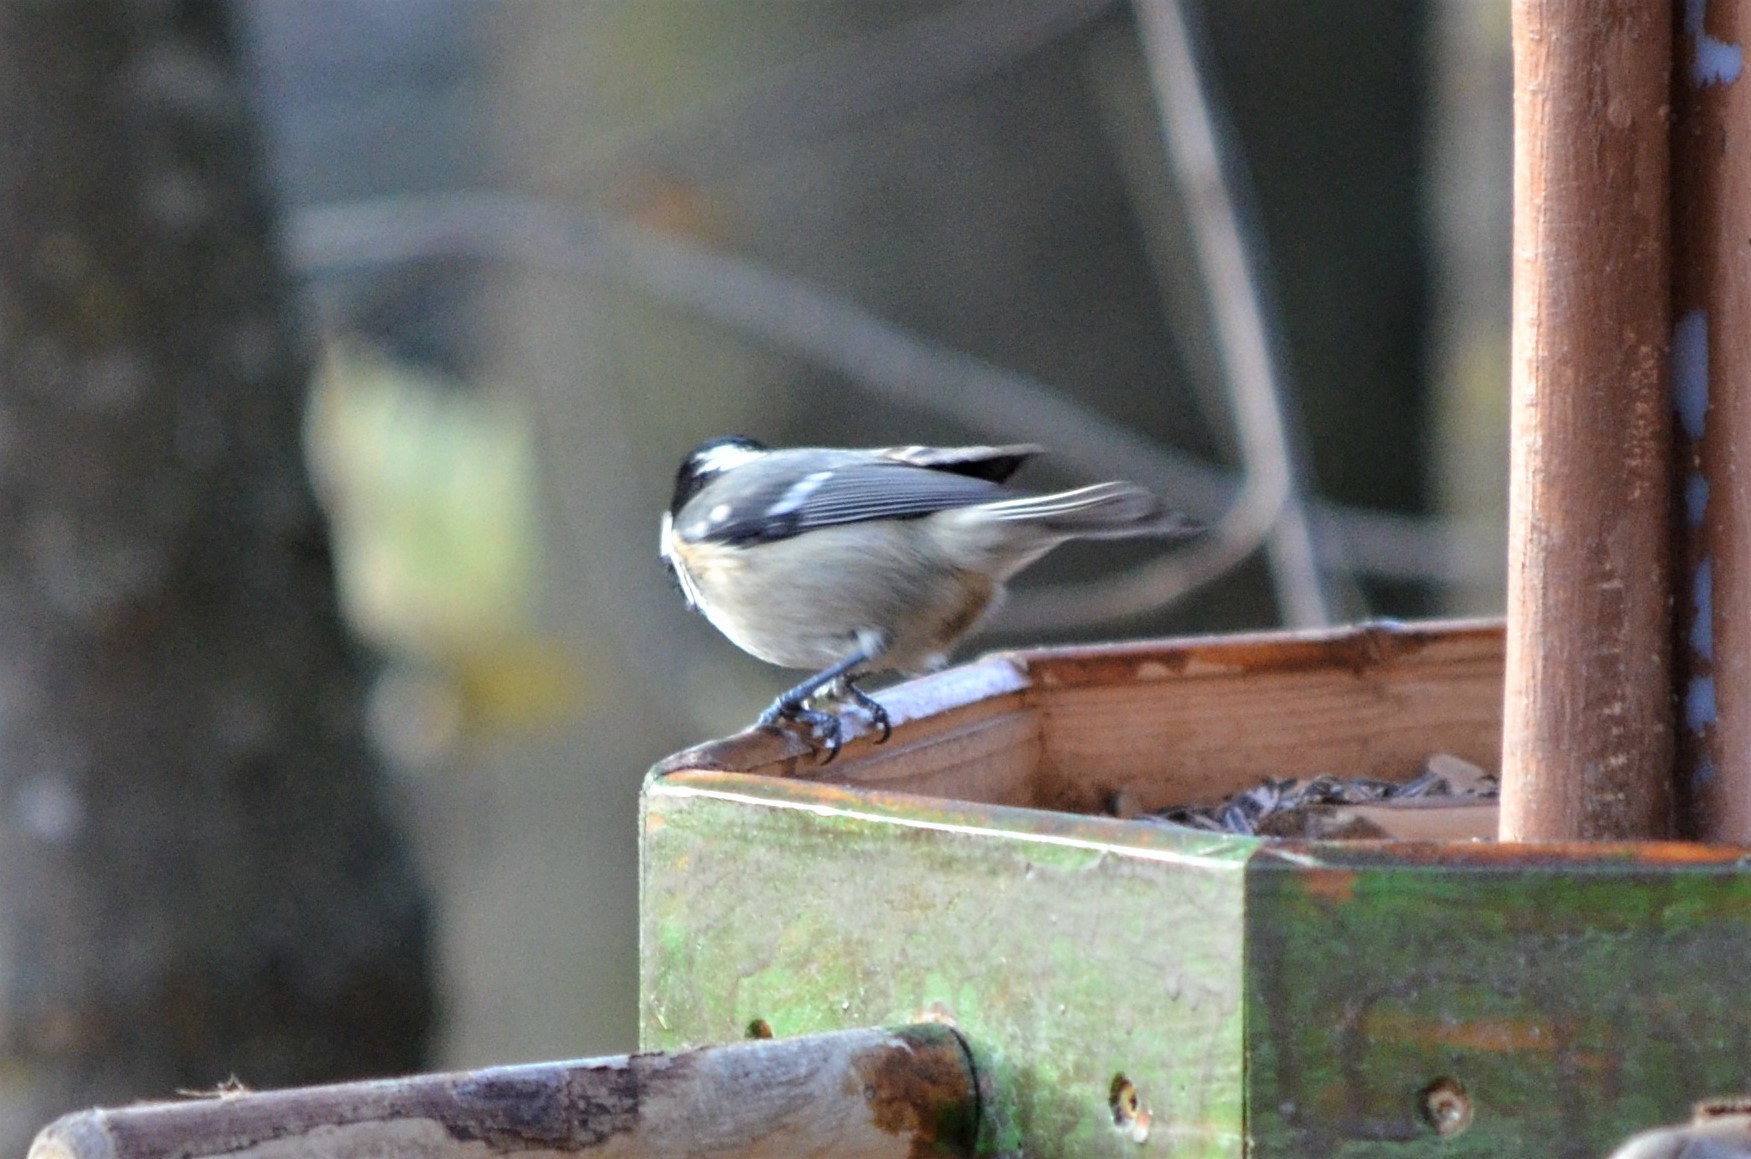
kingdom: Animalia
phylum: Chordata
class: Aves
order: Passeriformes
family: Paridae
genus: Periparus
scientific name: Periparus ater
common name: Coal tit
